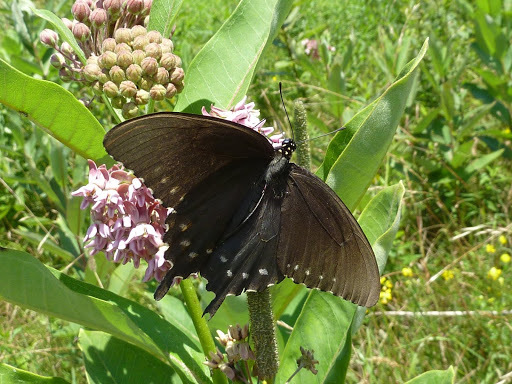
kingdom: Animalia
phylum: Arthropoda
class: Insecta
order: Lepidoptera
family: Papilionidae
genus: Battus
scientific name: Battus philenor
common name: Pipevine swallowtail
